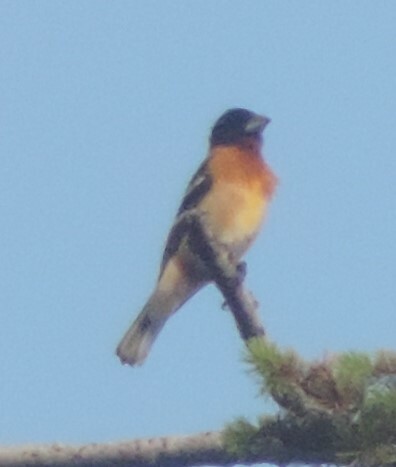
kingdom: Animalia
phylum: Chordata
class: Aves
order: Passeriformes
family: Cardinalidae
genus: Pheucticus
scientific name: Pheucticus melanocephalus
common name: Black-headed grosbeak
